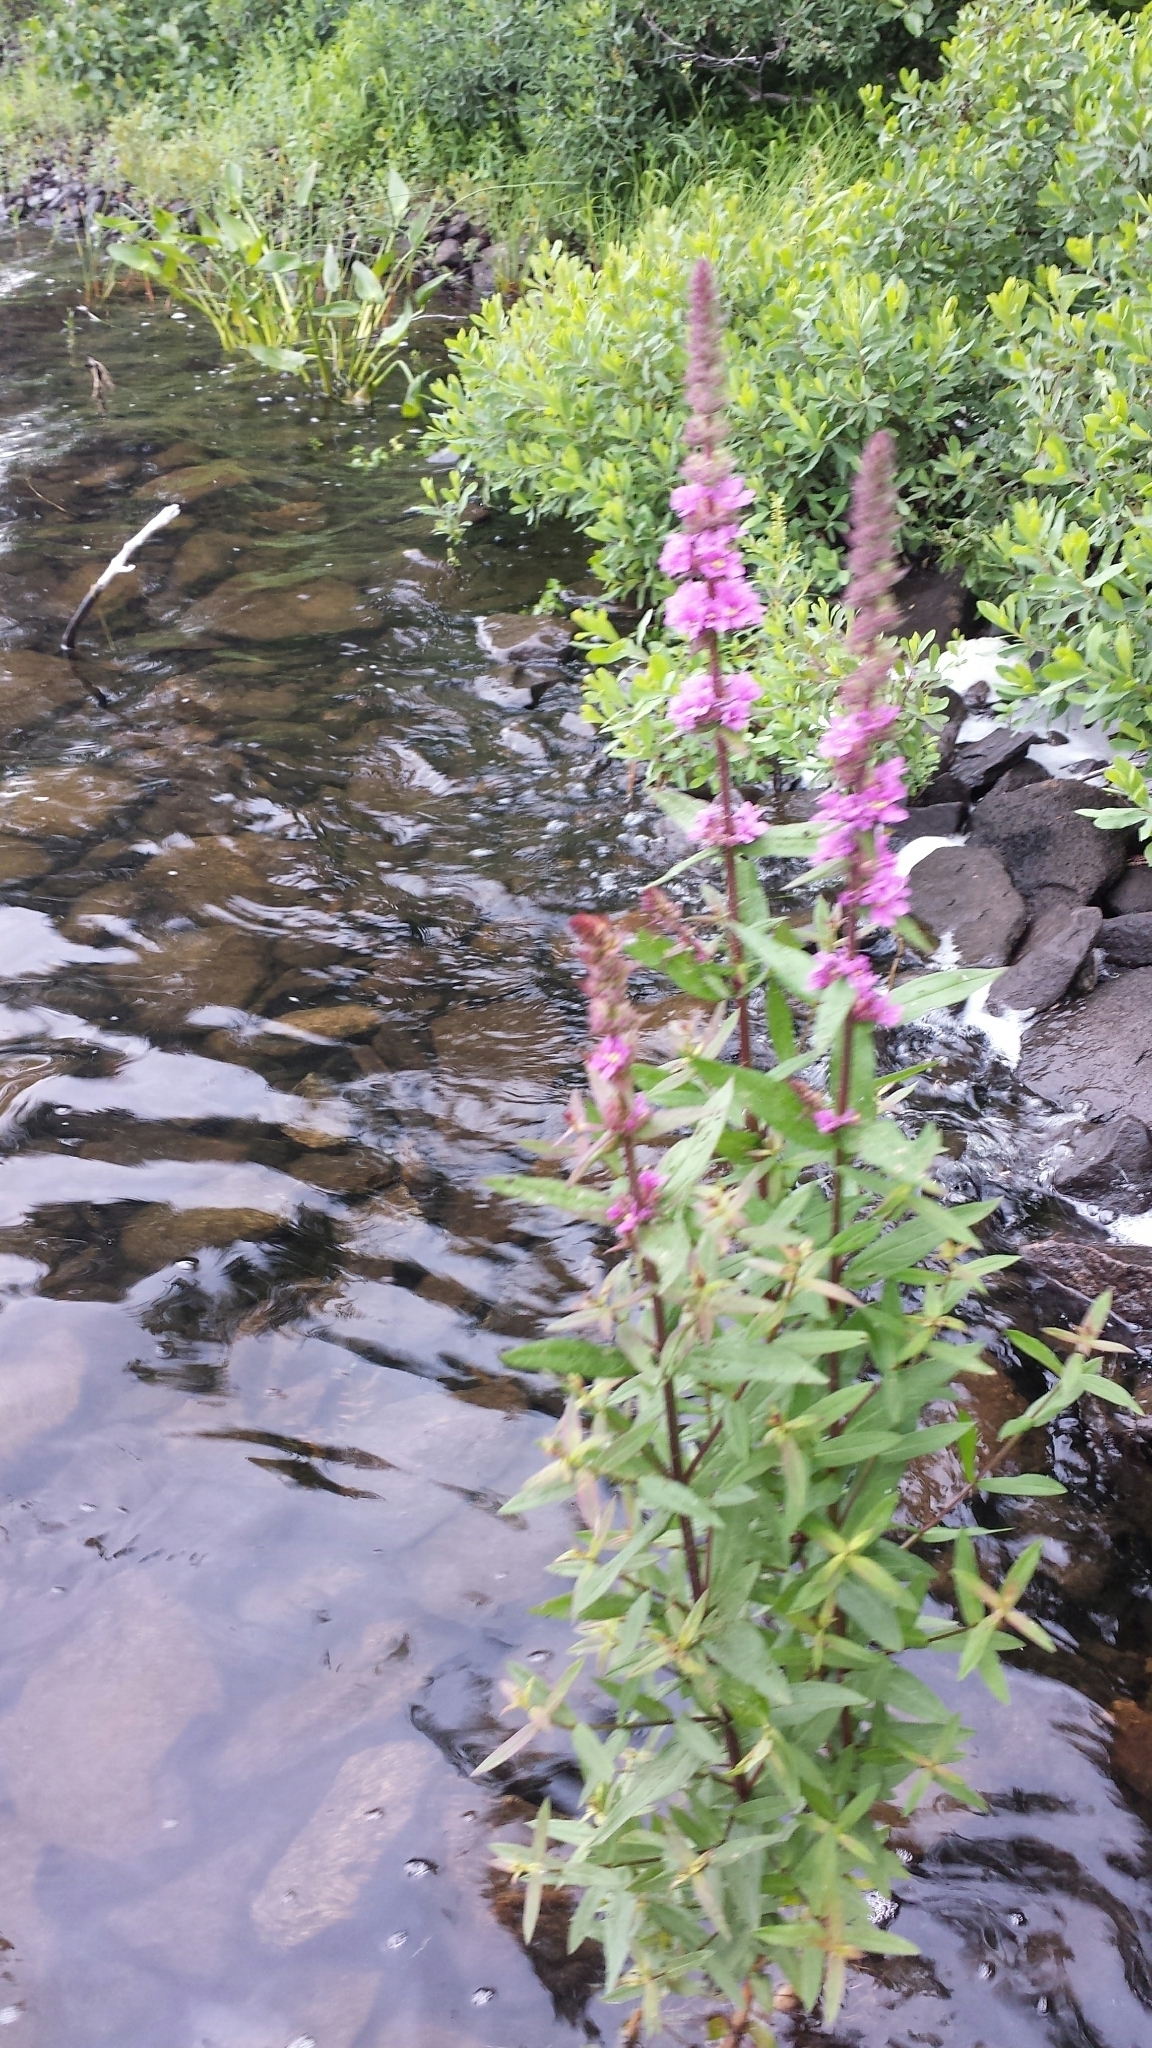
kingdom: Plantae
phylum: Tracheophyta
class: Magnoliopsida
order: Myrtales
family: Lythraceae
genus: Lythrum
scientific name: Lythrum salicaria
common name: Purple loosestrife
